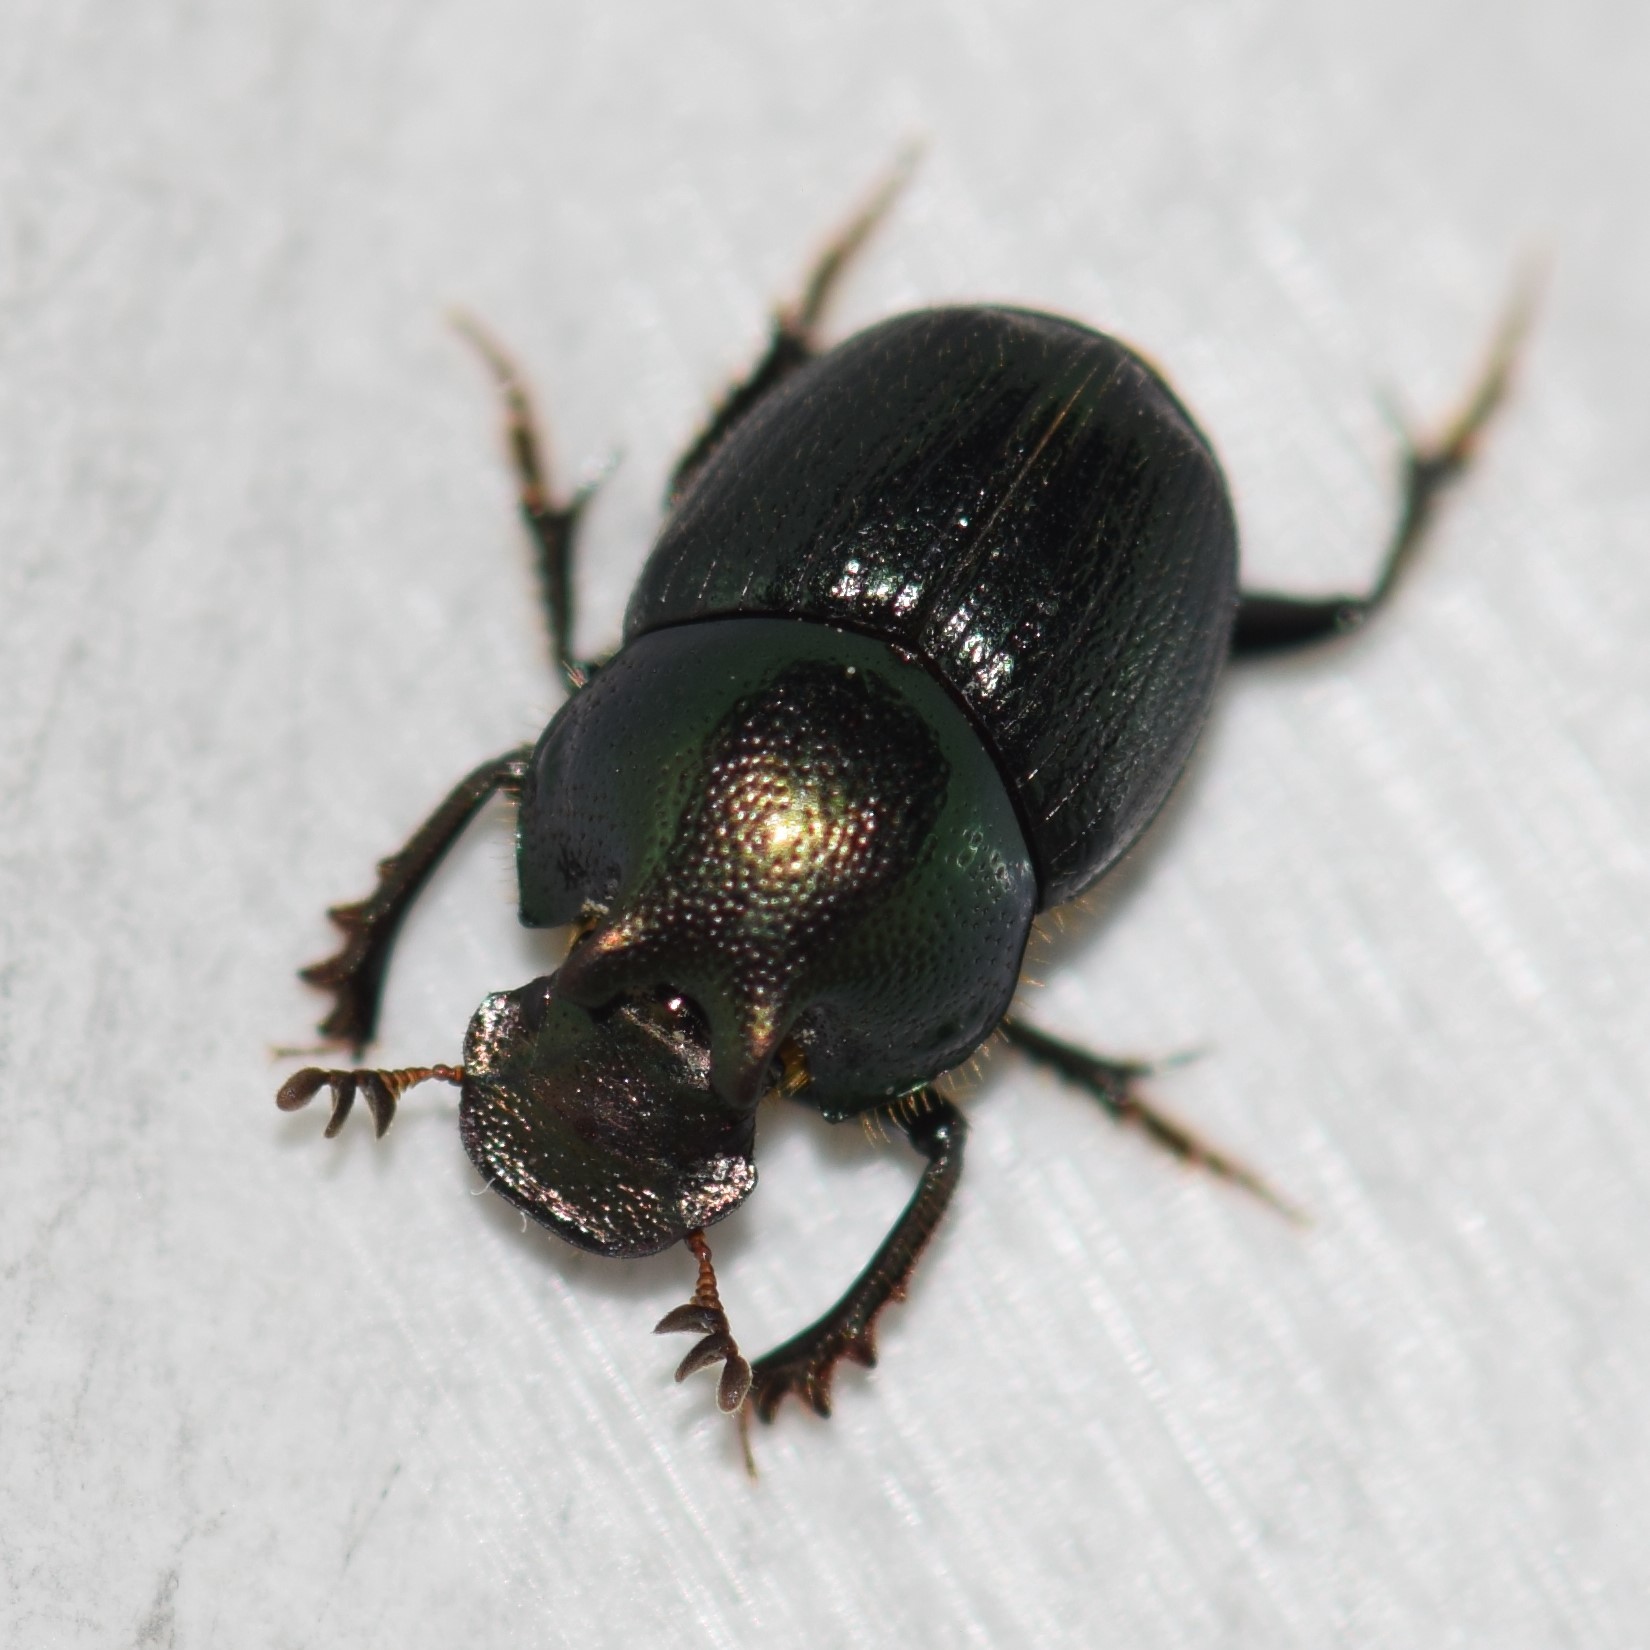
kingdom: Animalia
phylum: Arthropoda
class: Insecta
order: Coleoptera
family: Scarabaeidae
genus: Onthophagus
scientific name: Onthophagus orpheus
